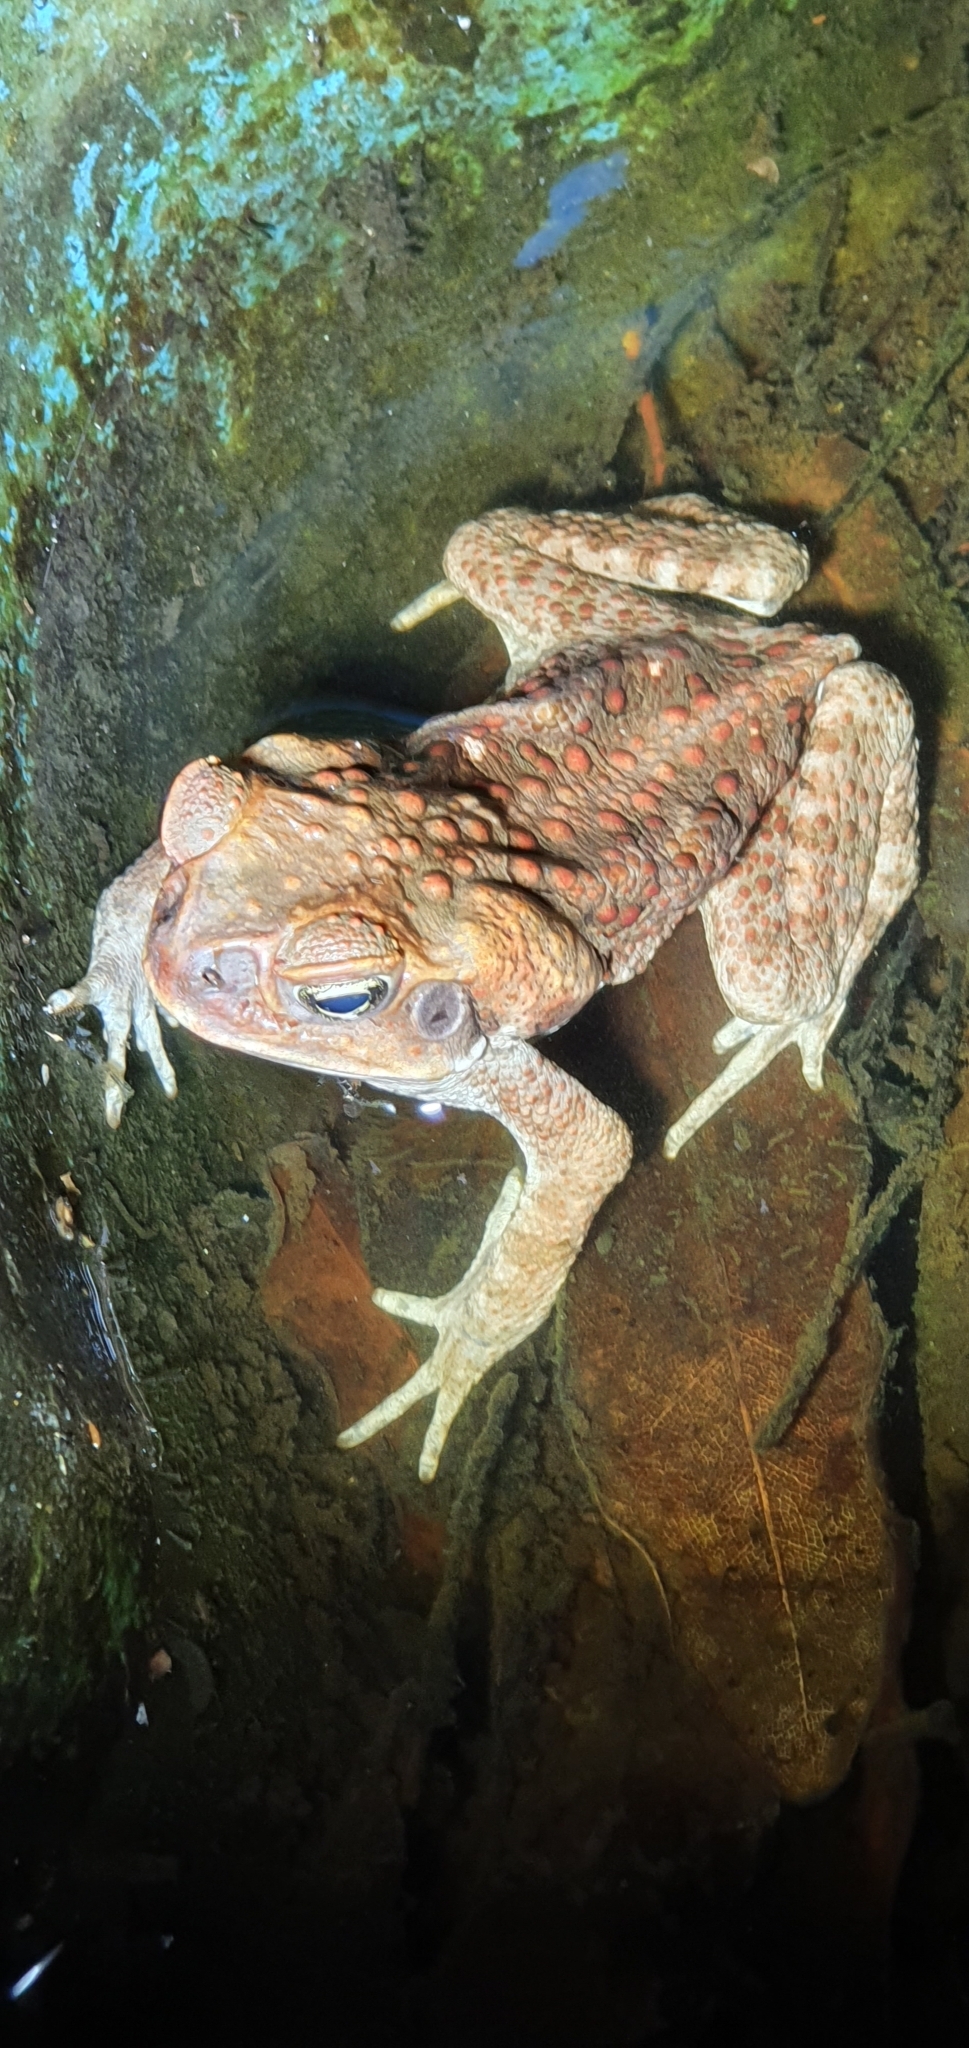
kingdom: Animalia
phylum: Chordata
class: Amphibia
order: Anura
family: Bufonidae
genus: Rhinella
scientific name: Rhinella marina
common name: Cane toad
